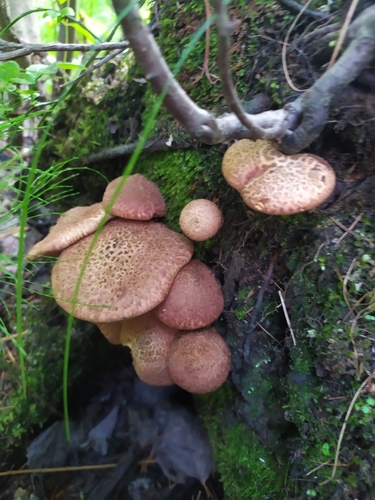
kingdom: Fungi
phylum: Basidiomycota
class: Agaricomycetes
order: Boletales
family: Suillaceae
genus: Suillus
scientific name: Suillus spraguei
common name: Painted suillus
